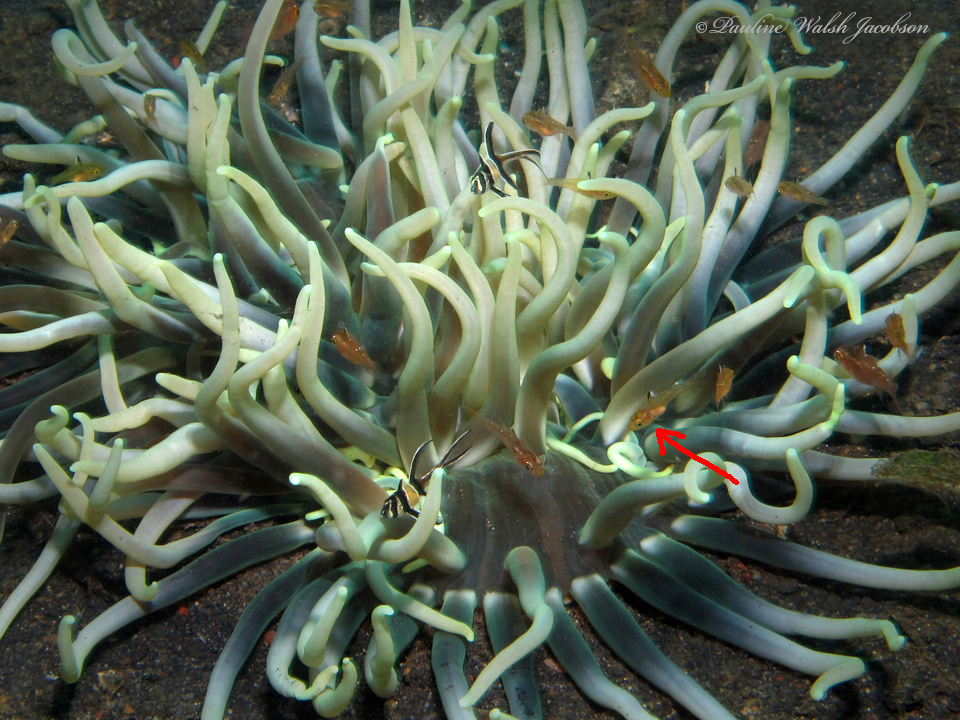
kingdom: Animalia
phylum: Chordata
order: Perciformes
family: Apogonidae
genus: Ostorhinchus
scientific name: Ostorhinchus hoevenii
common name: Flag-fin cardinal
